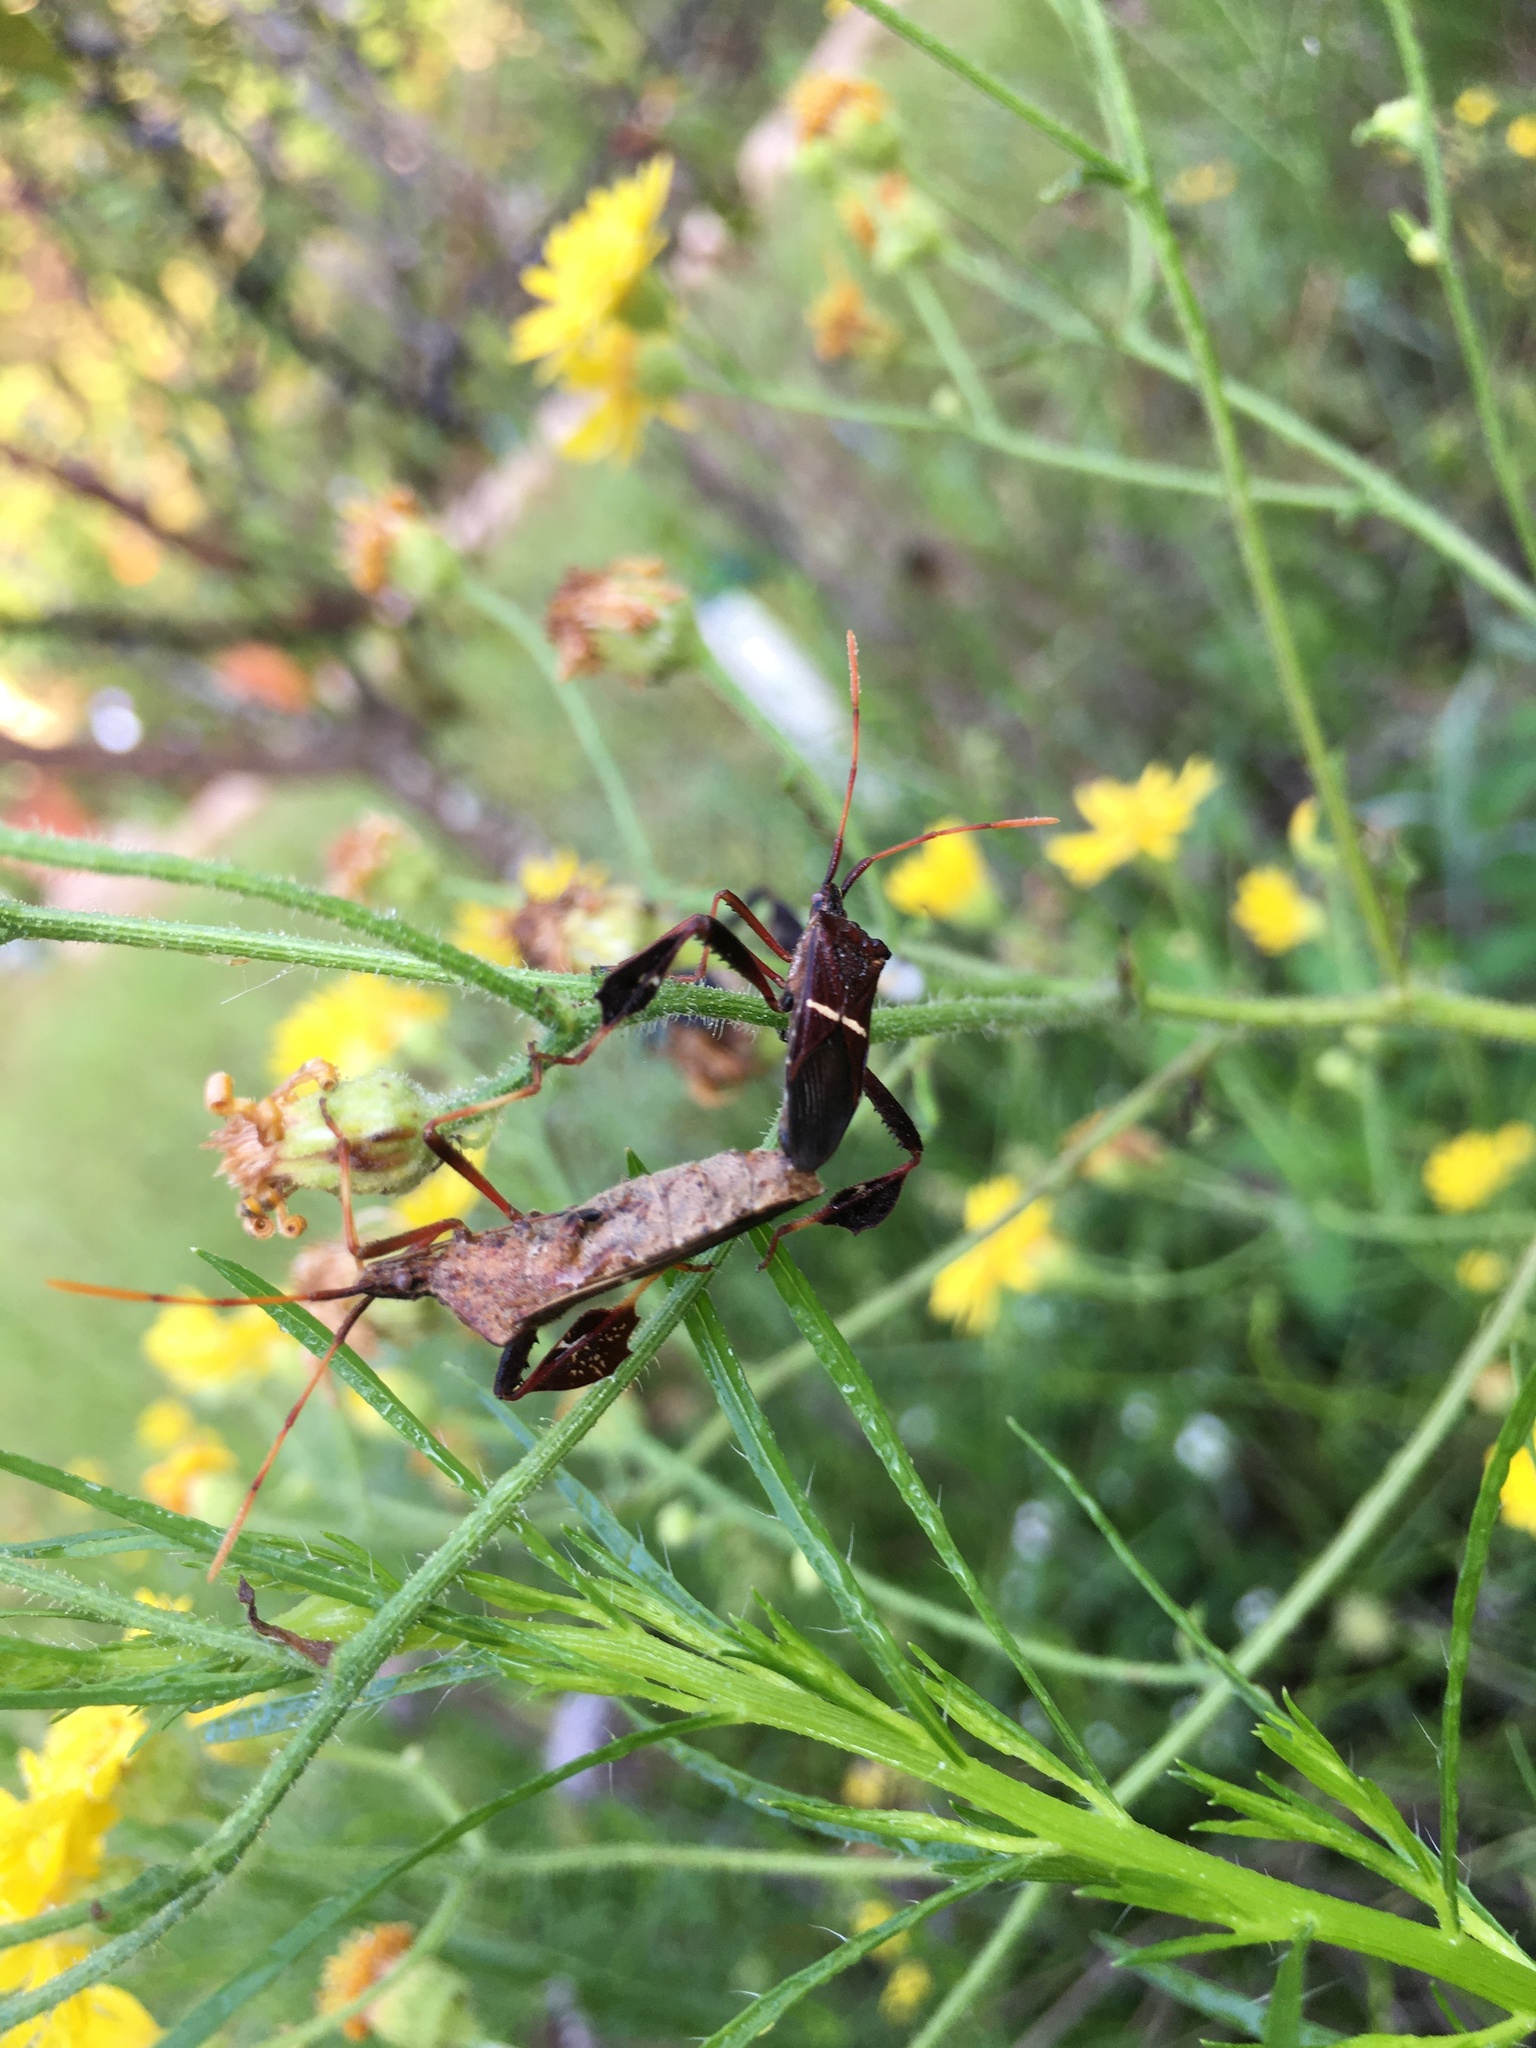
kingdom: Animalia
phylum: Arthropoda
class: Insecta
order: Hemiptera
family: Coreidae
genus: Leptoglossus
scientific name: Leptoglossus phyllopus
